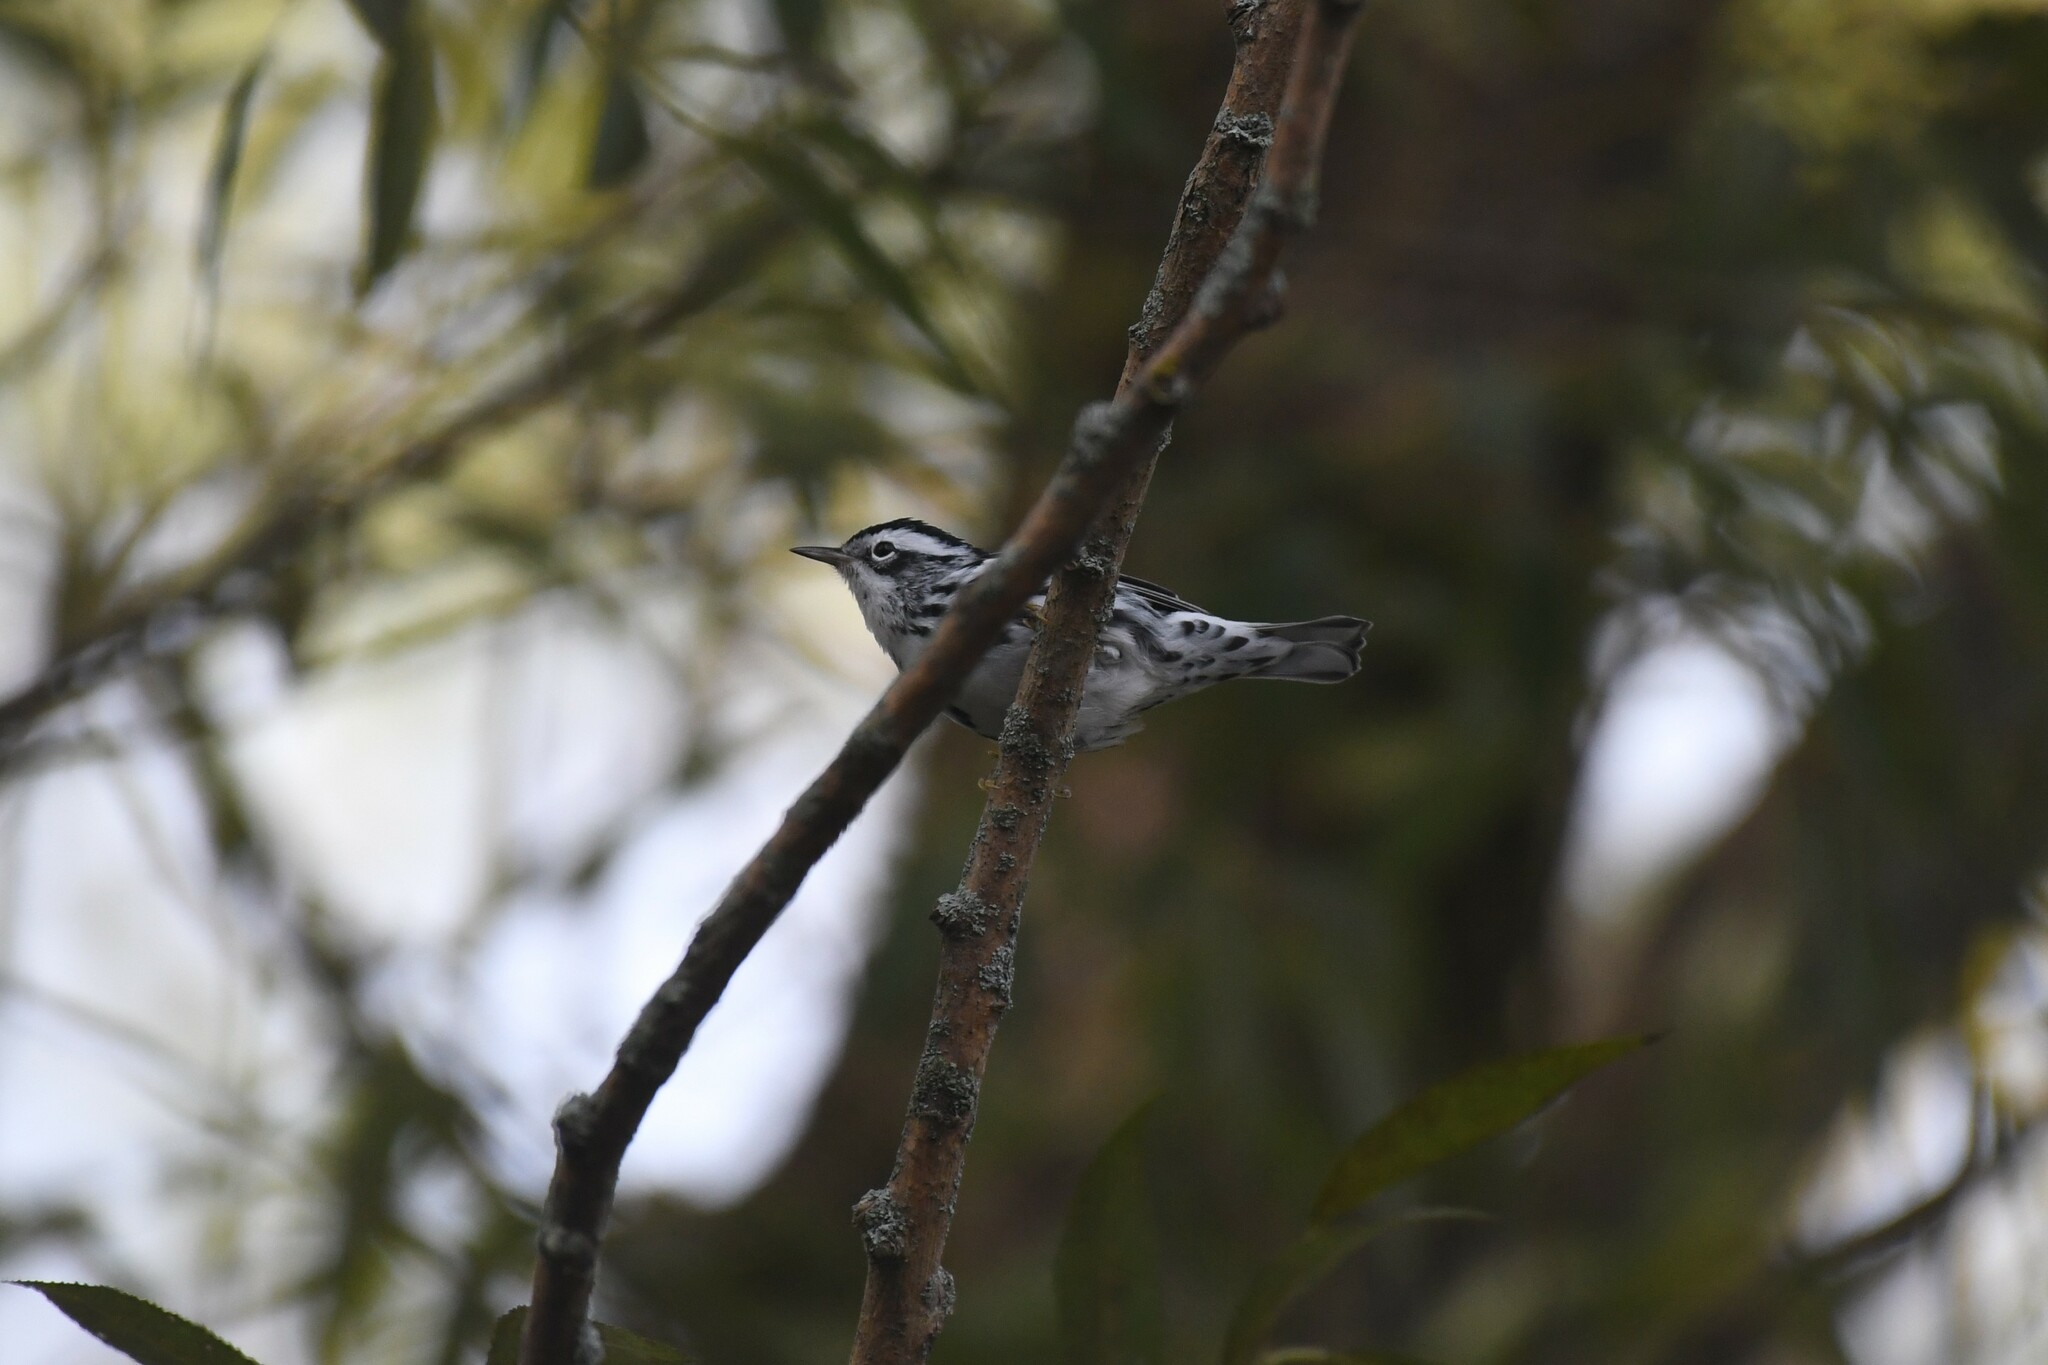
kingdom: Animalia
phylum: Chordata
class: Aves
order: Passeriformes
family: Parulidae
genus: Mniotilta
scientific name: Mniotilta varia
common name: Black-and-white warbler
